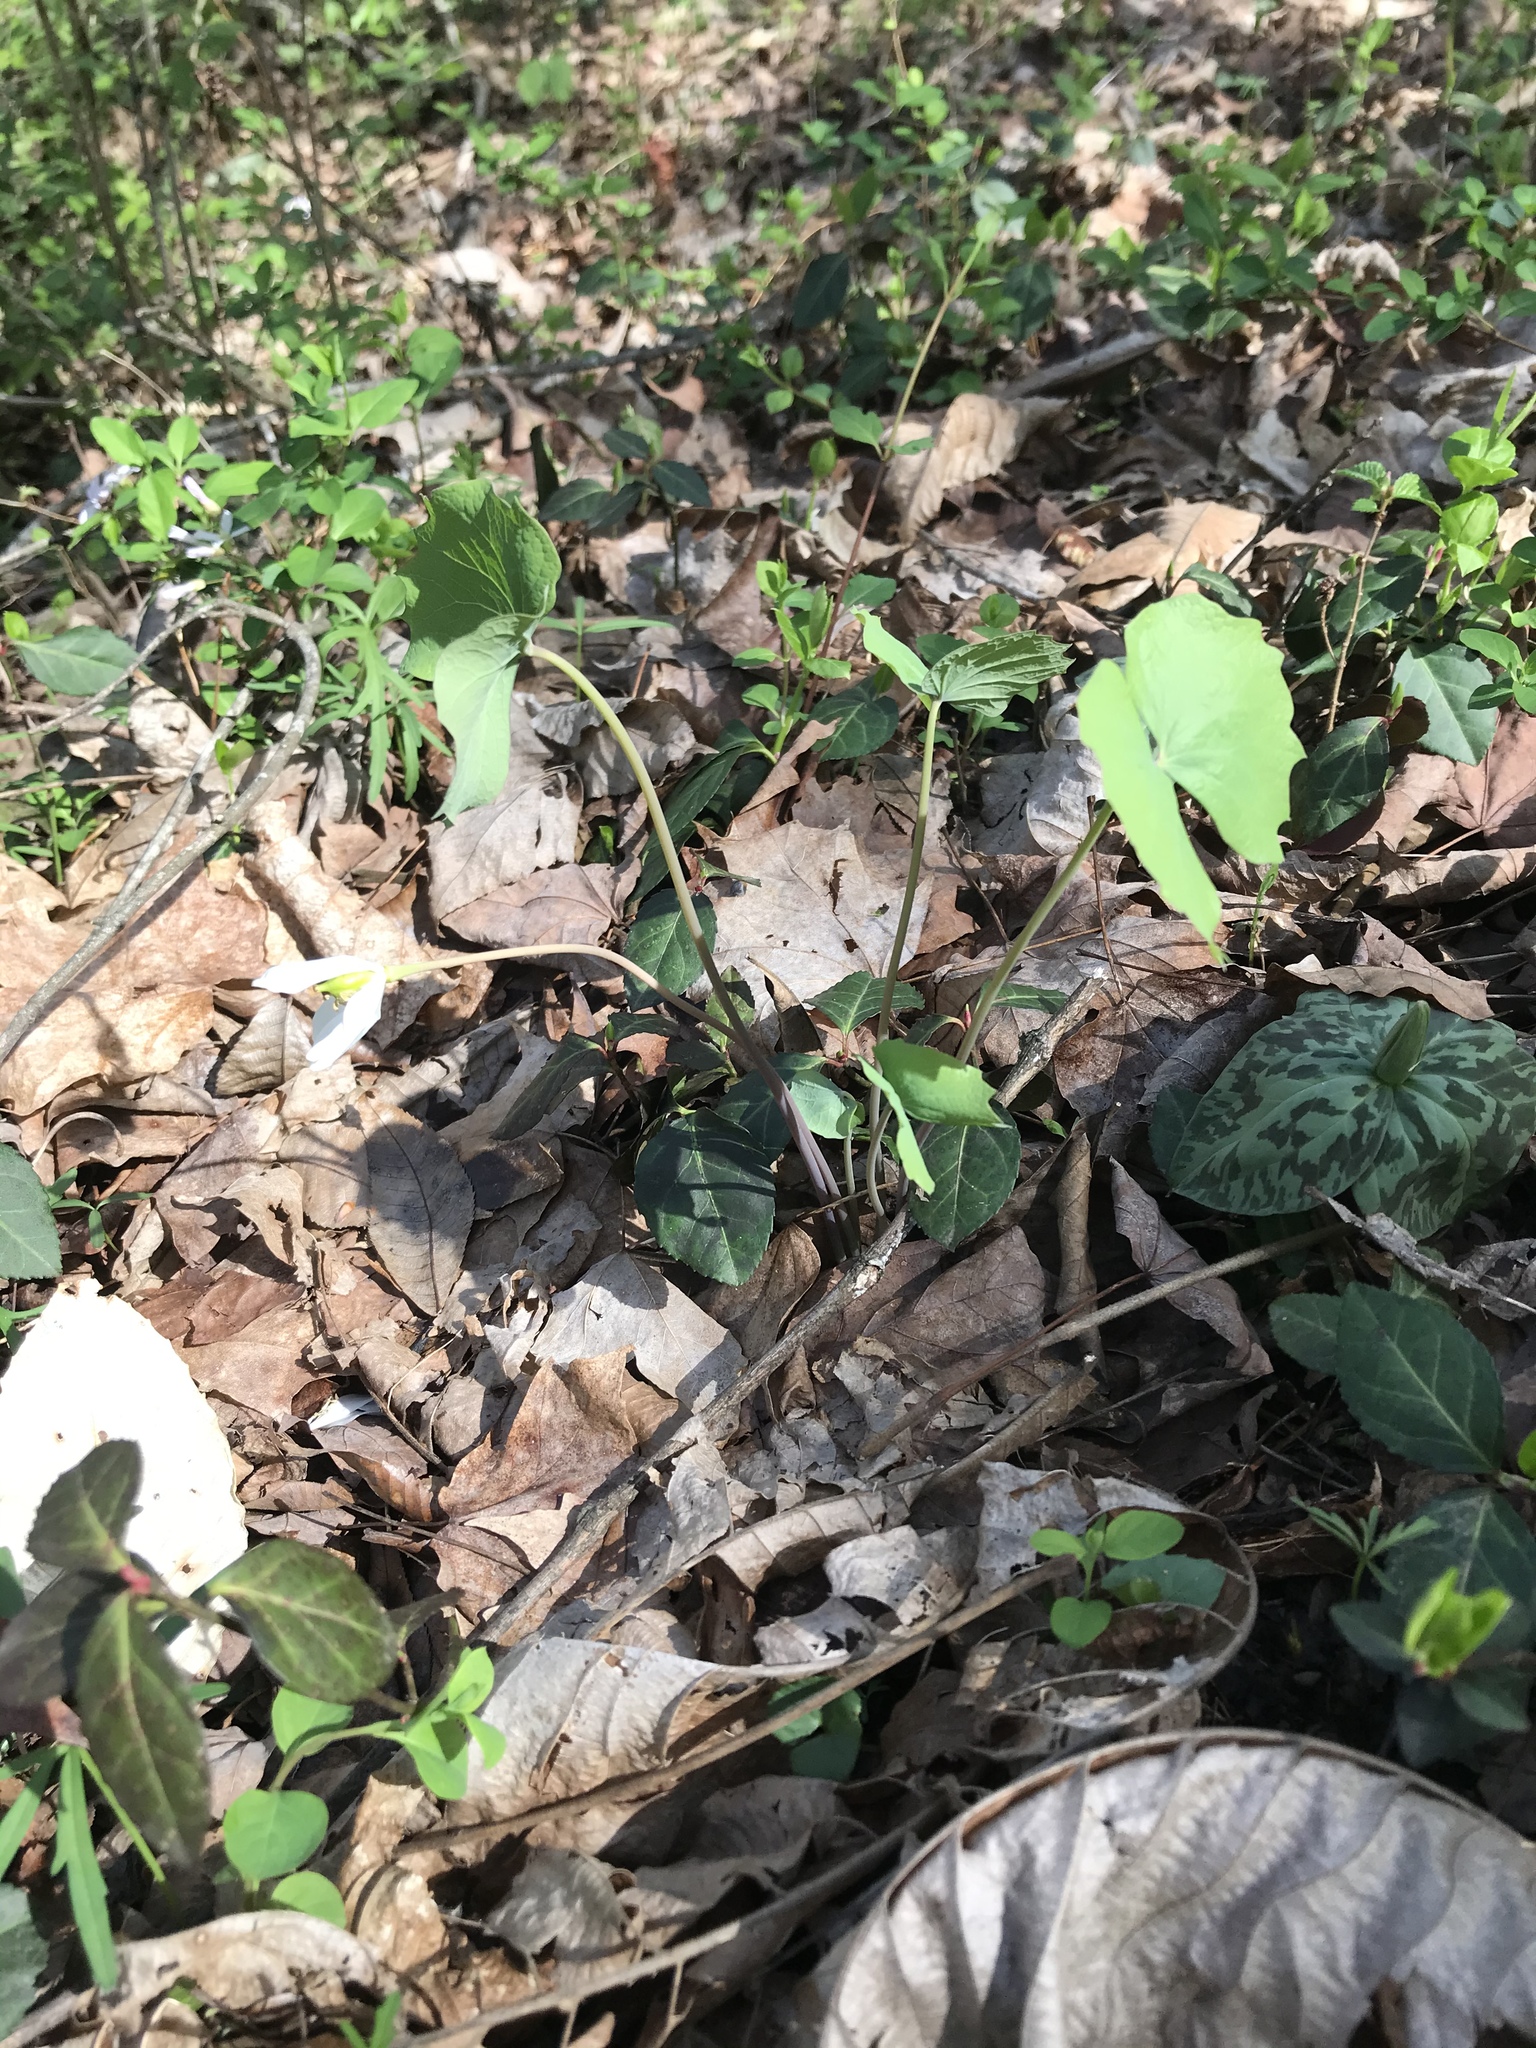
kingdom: Plantae
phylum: Tracheophyta
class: Magnoliopsida
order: Ranunculales
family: Berberidaceae
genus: Jeffersonia
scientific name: Jeffersonia diphylla
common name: Rheumatism-root
